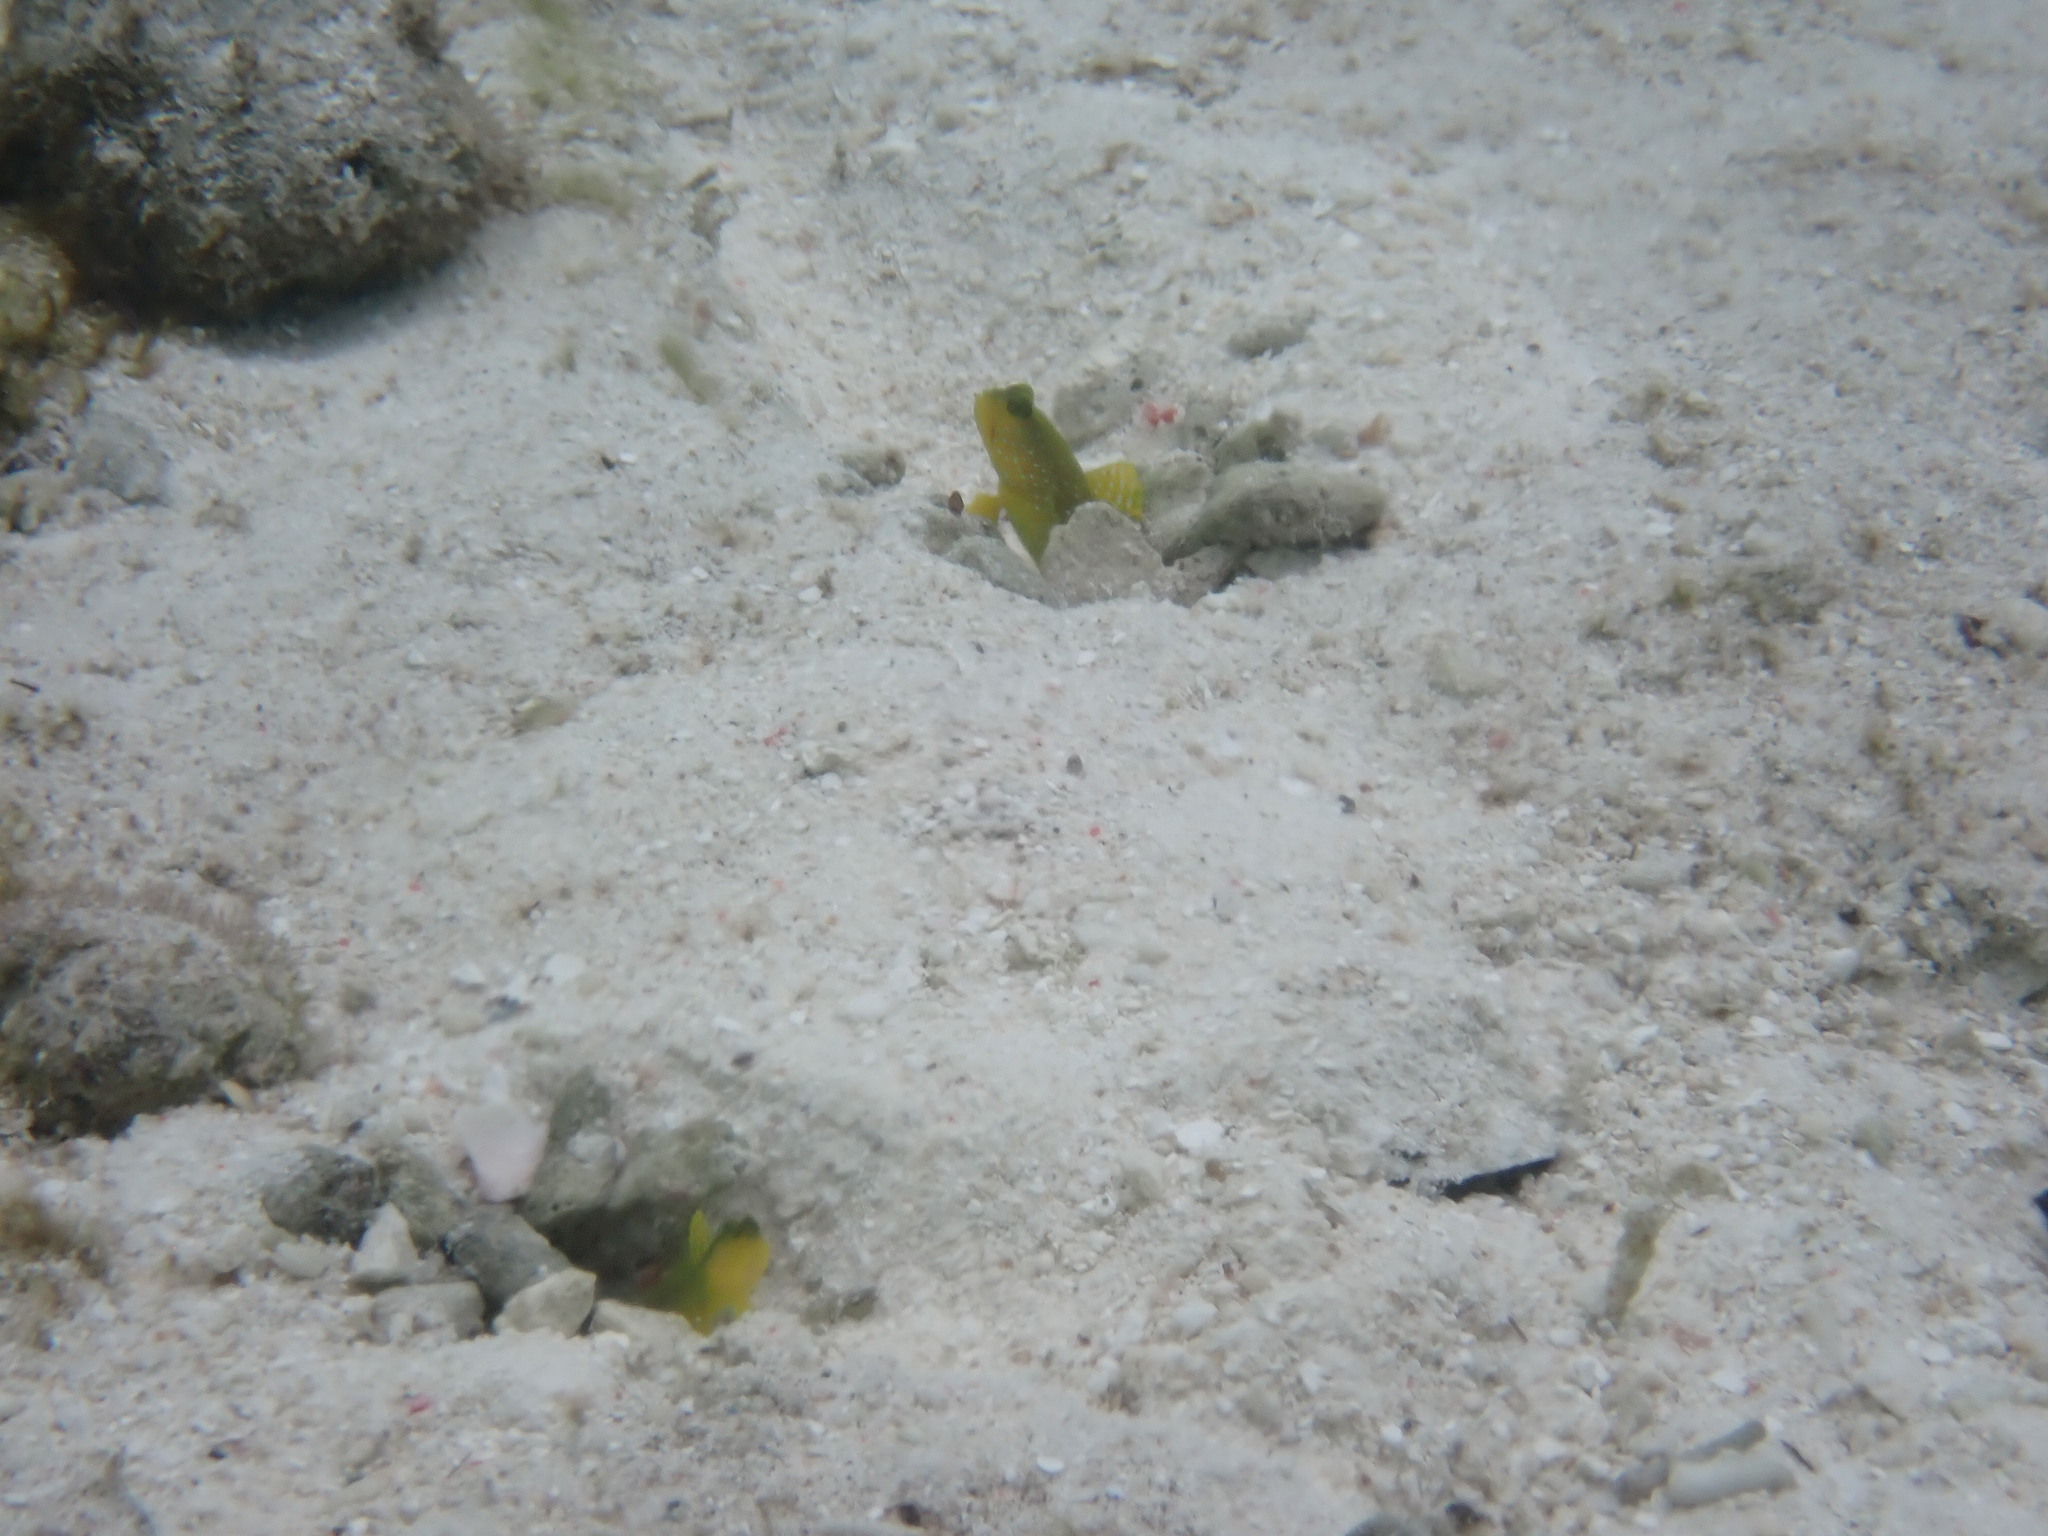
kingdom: Animalia
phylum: Chordata
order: Perciformes
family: Gobiidae
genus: Cryptocentrus
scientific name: Cryptocentrus cinctus
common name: Yellow shrimp goby
